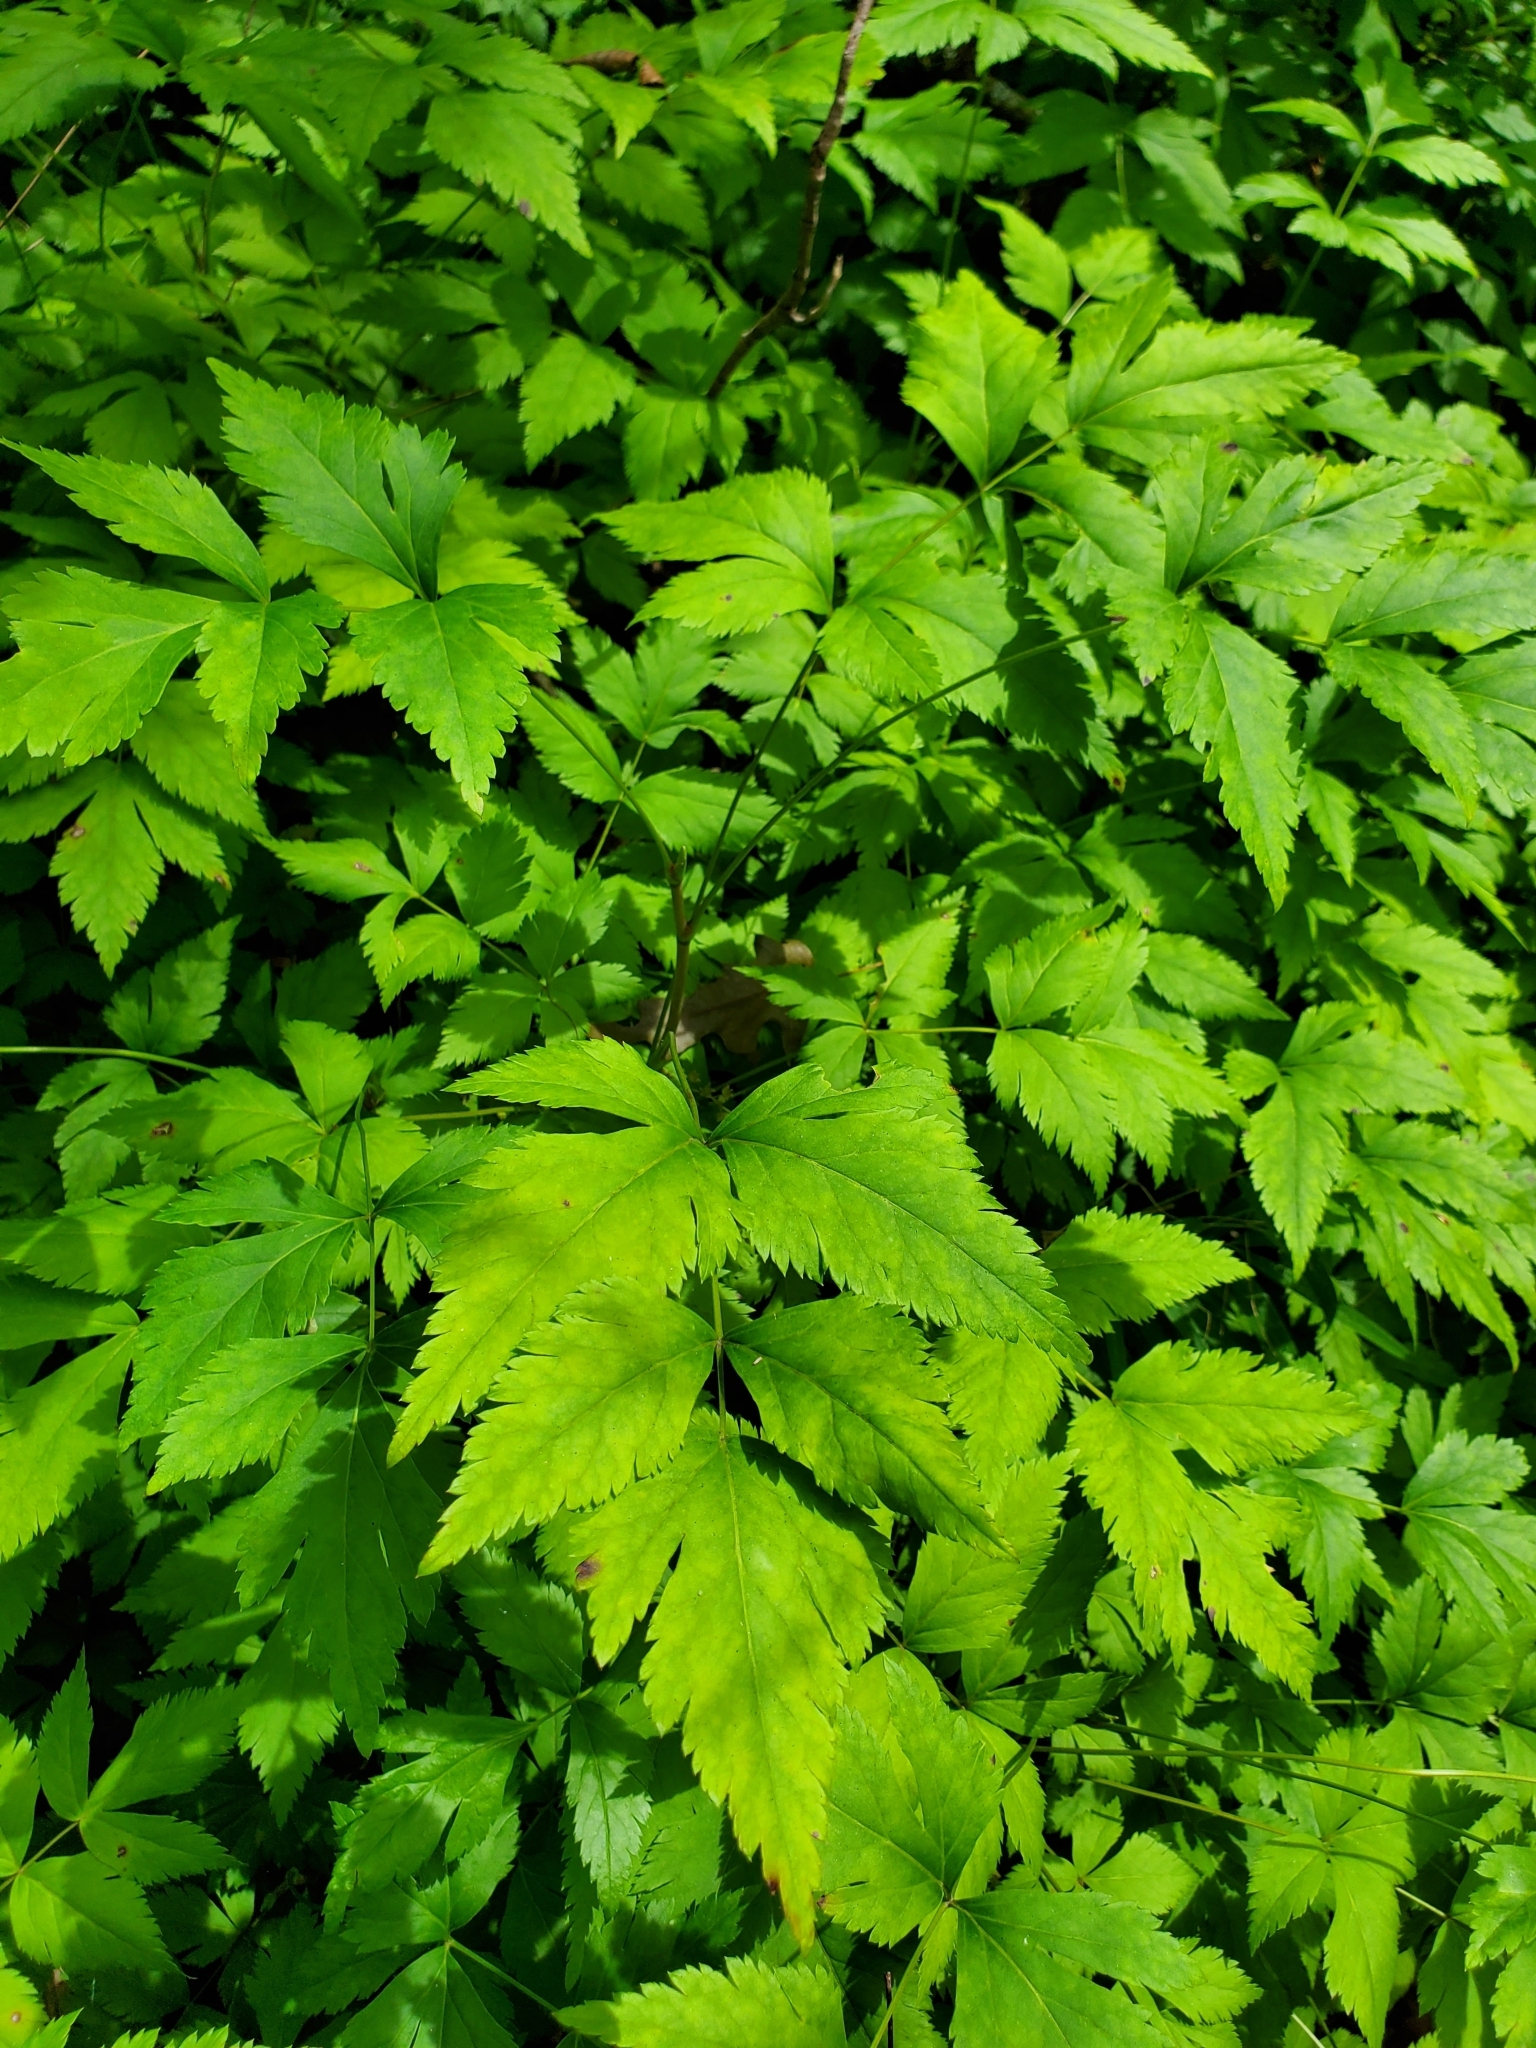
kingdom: Plantae
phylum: Tracheophyta
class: Magnoliopsida
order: Ranunculales
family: Ranunculaceae
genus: Xanthorhiza
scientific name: Xanthorhiza simplicissima
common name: Yellowroot
